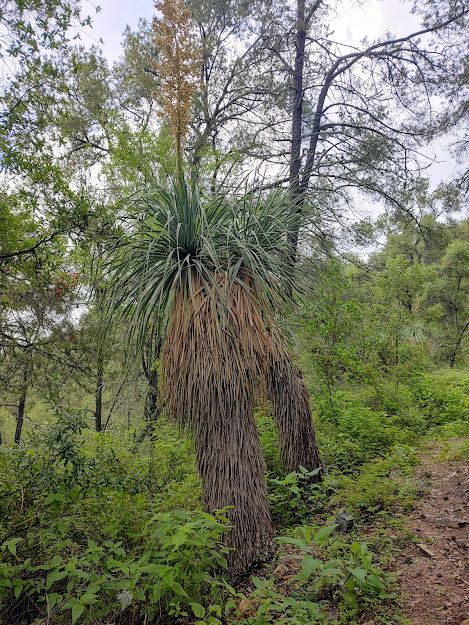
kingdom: Plantae
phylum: Tracheophyta
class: Liliopsida
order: Asparagales
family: Asparagaceae
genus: Nolina
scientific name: Nolina beldingii
